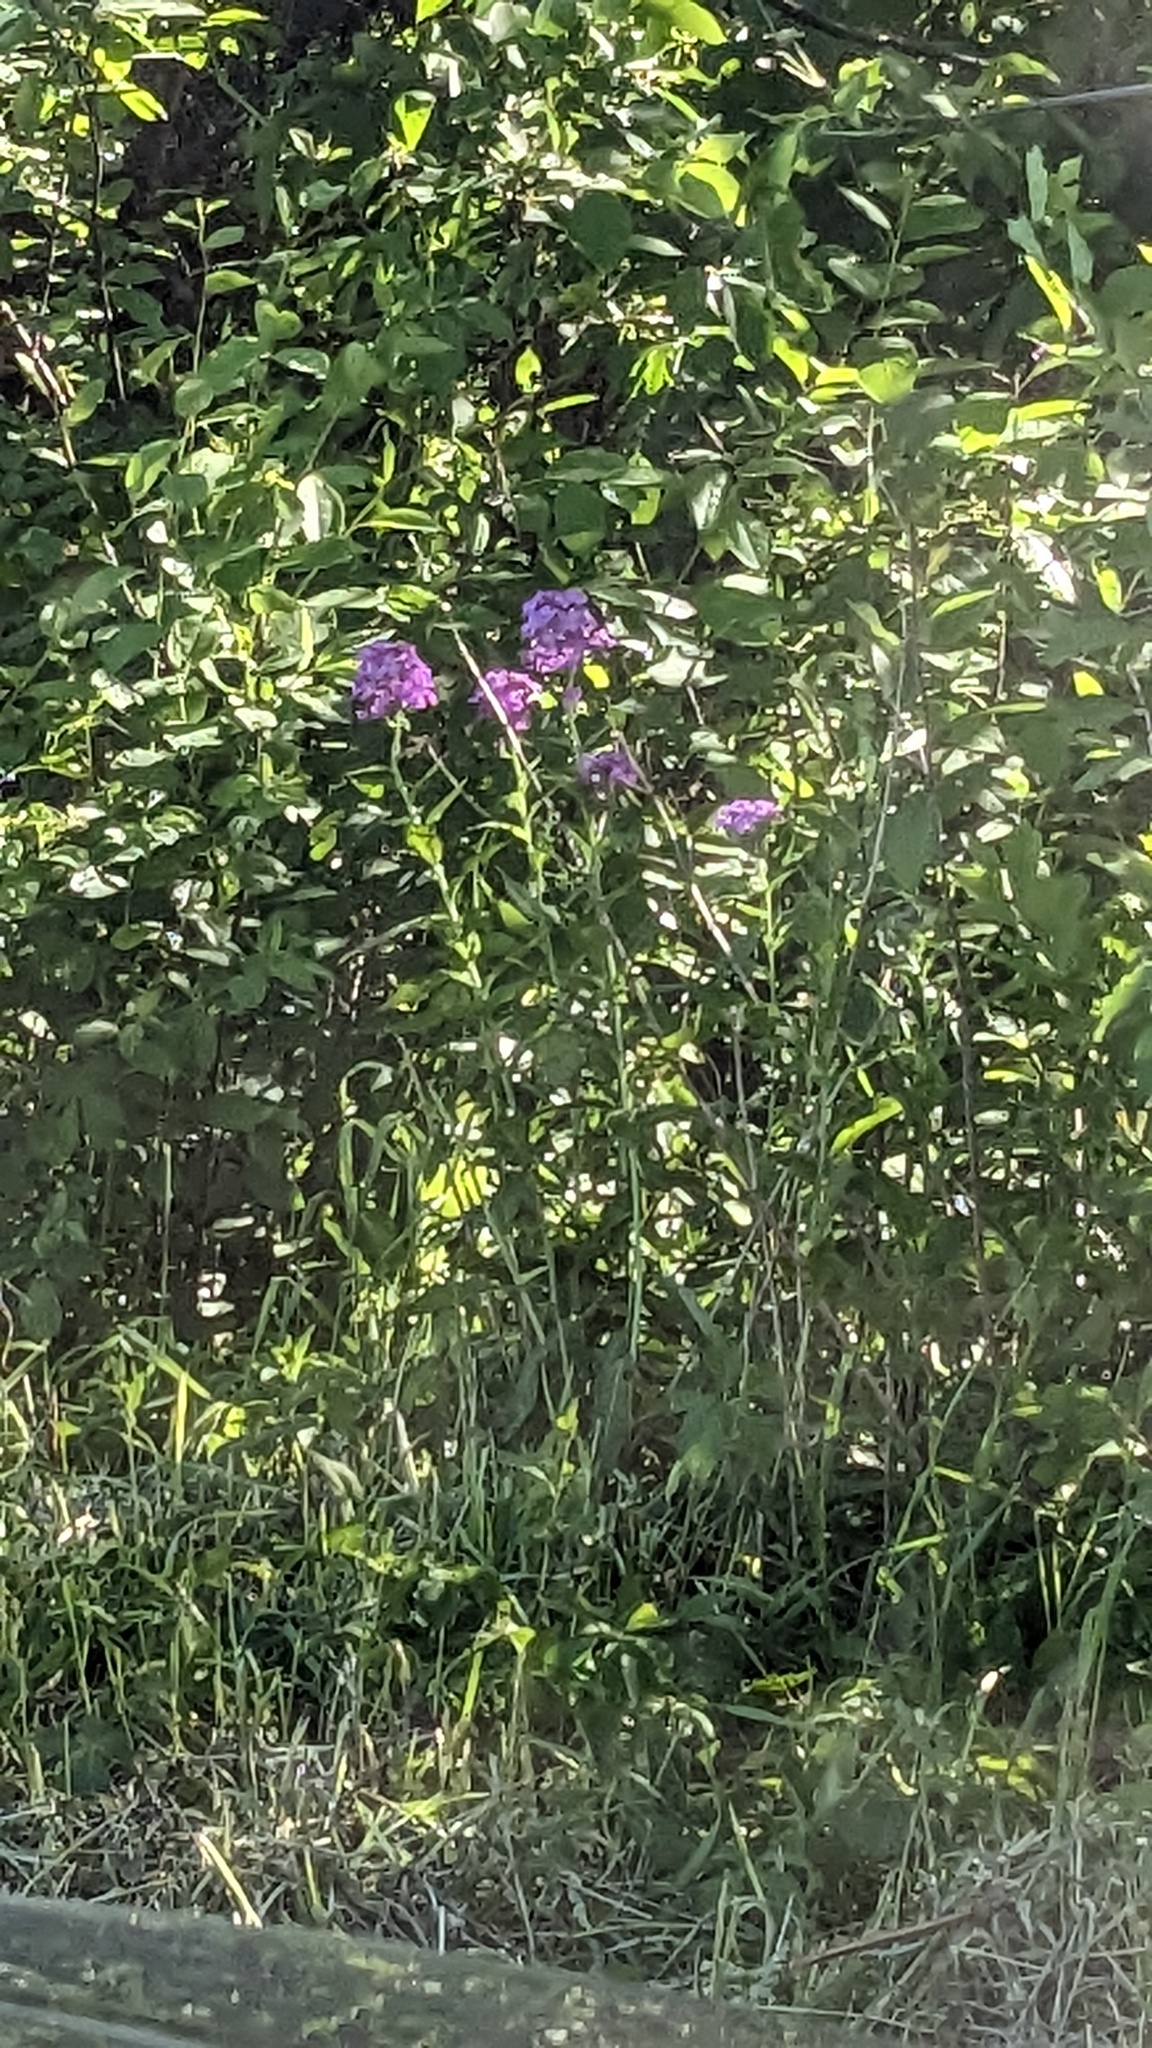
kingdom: Plantae
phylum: Tracheophyta
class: Magnoliopsida
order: Brassicales
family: Brassicaceae
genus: Hesperis
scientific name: Hesperis matronalis
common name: Dame's-violet
